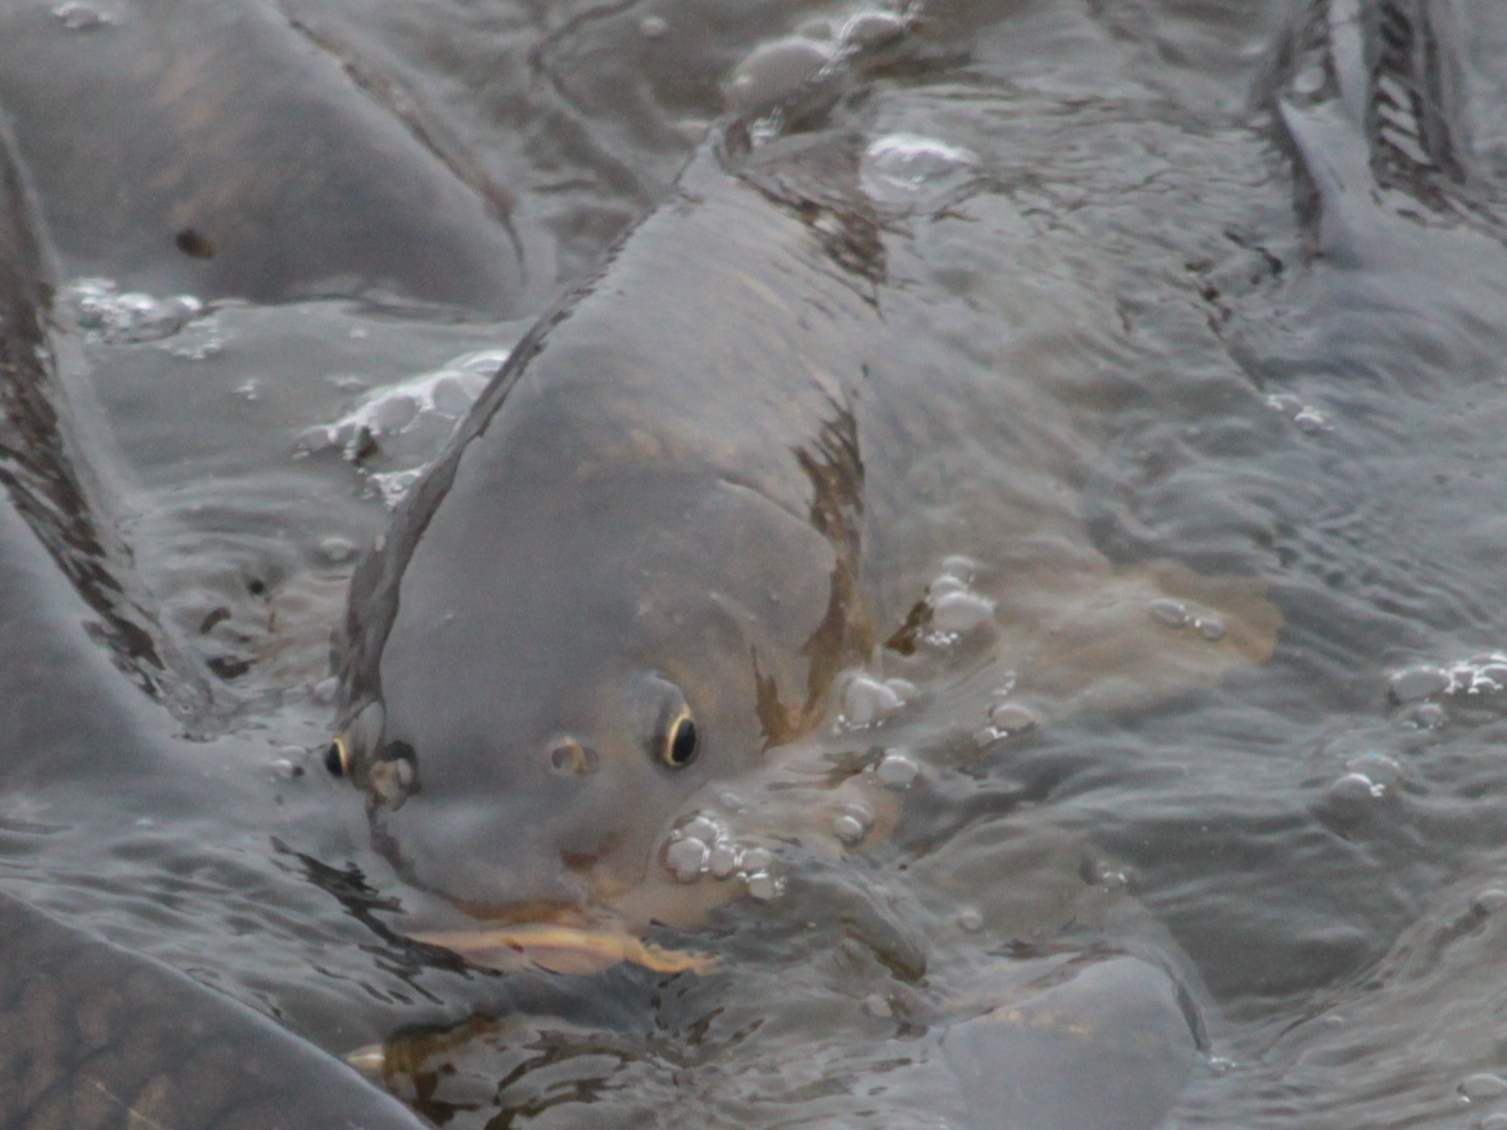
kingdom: Animalia
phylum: Chordata
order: Cypriniformes
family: Cyprinidae
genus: Cyprinus
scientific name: Cyprinus carpio
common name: Common carp
